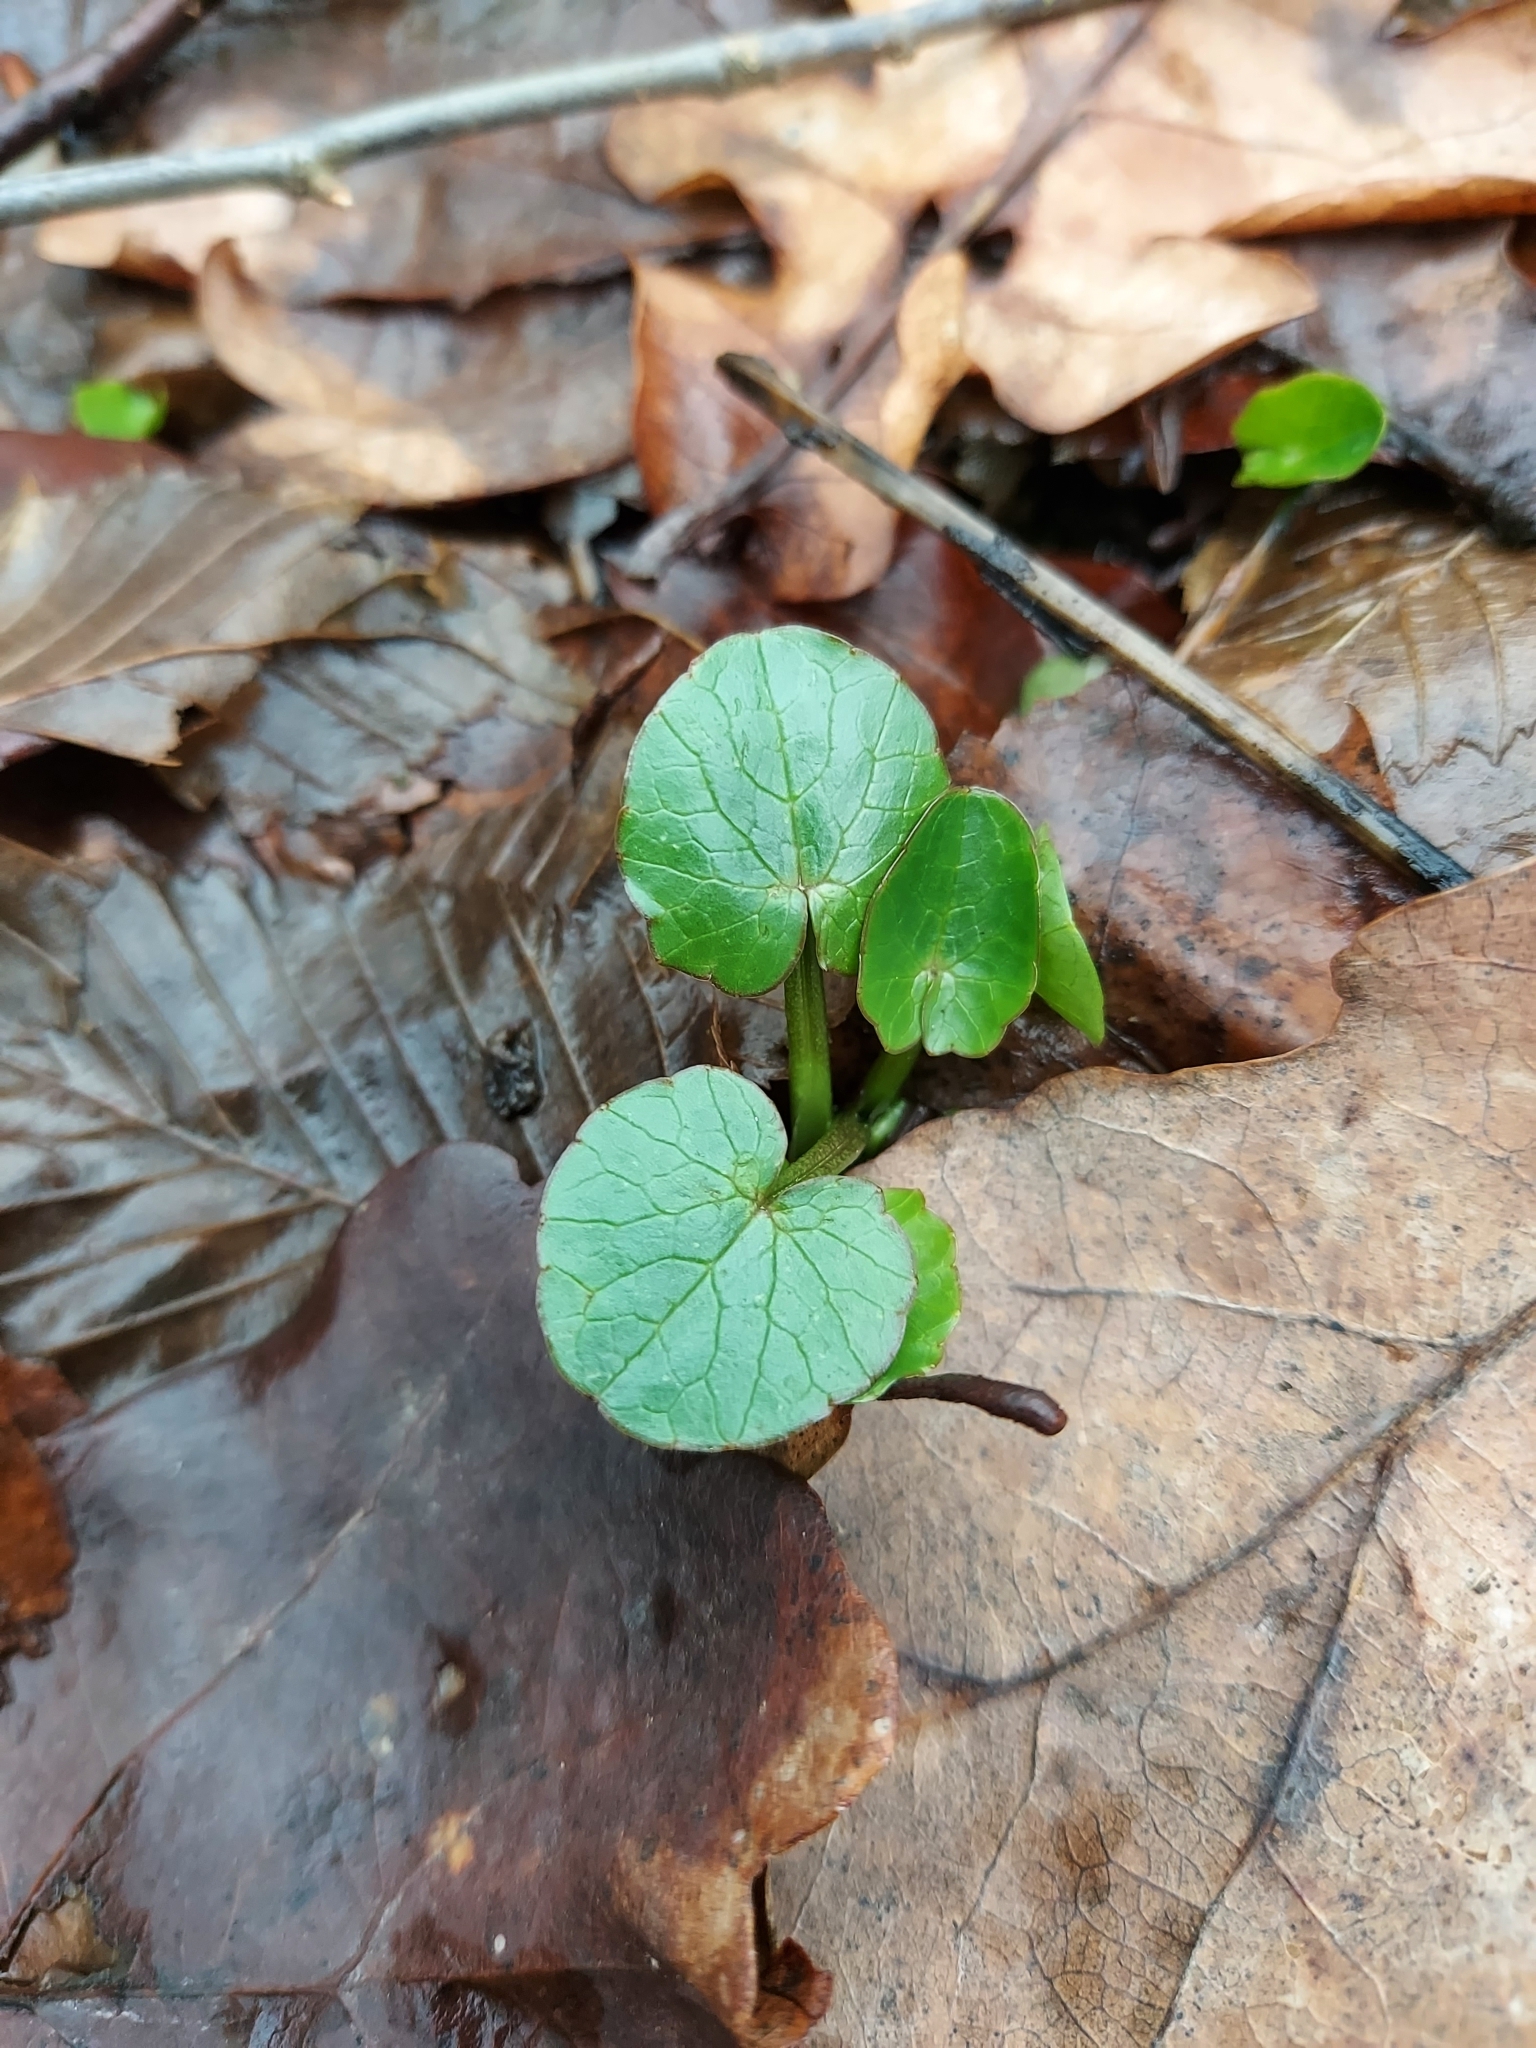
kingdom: Plantae
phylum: Tracheophyta
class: Magnoliopsida
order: Ranunculales
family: Ranunculaceae
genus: Ficaria
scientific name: Ficaria verna
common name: Lesser celandine
